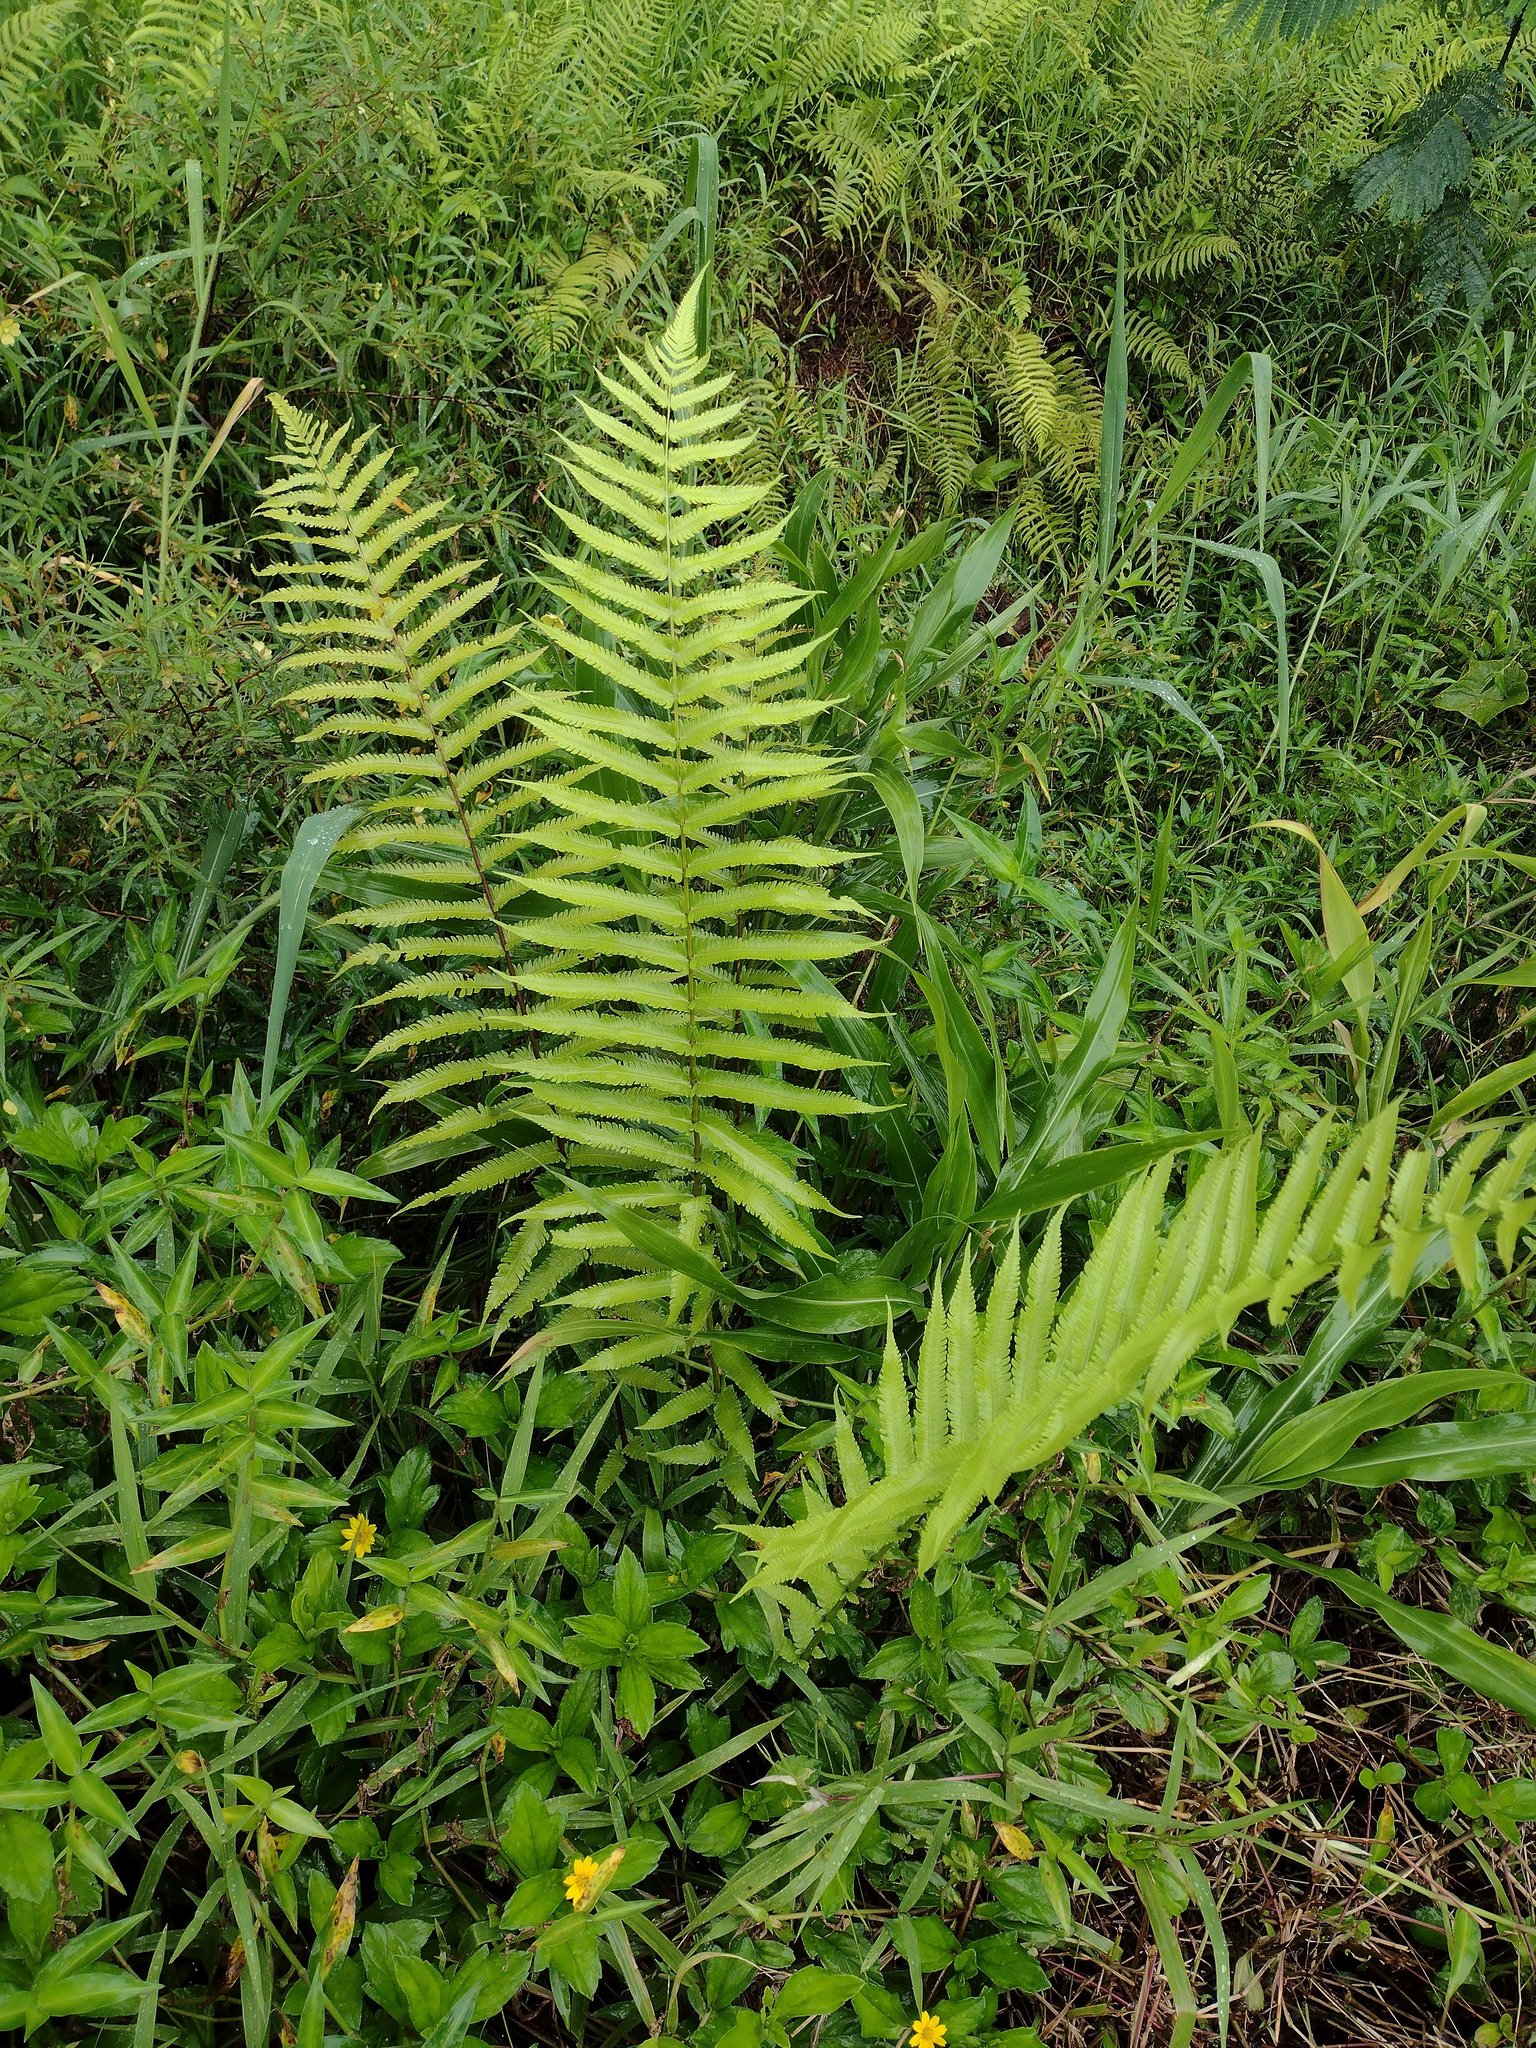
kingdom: Plantae
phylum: Tracheophyta
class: Polypodiopsida
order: Polypodiales
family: Thelypteridaceae
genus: Christella
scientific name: Christella parasitica
